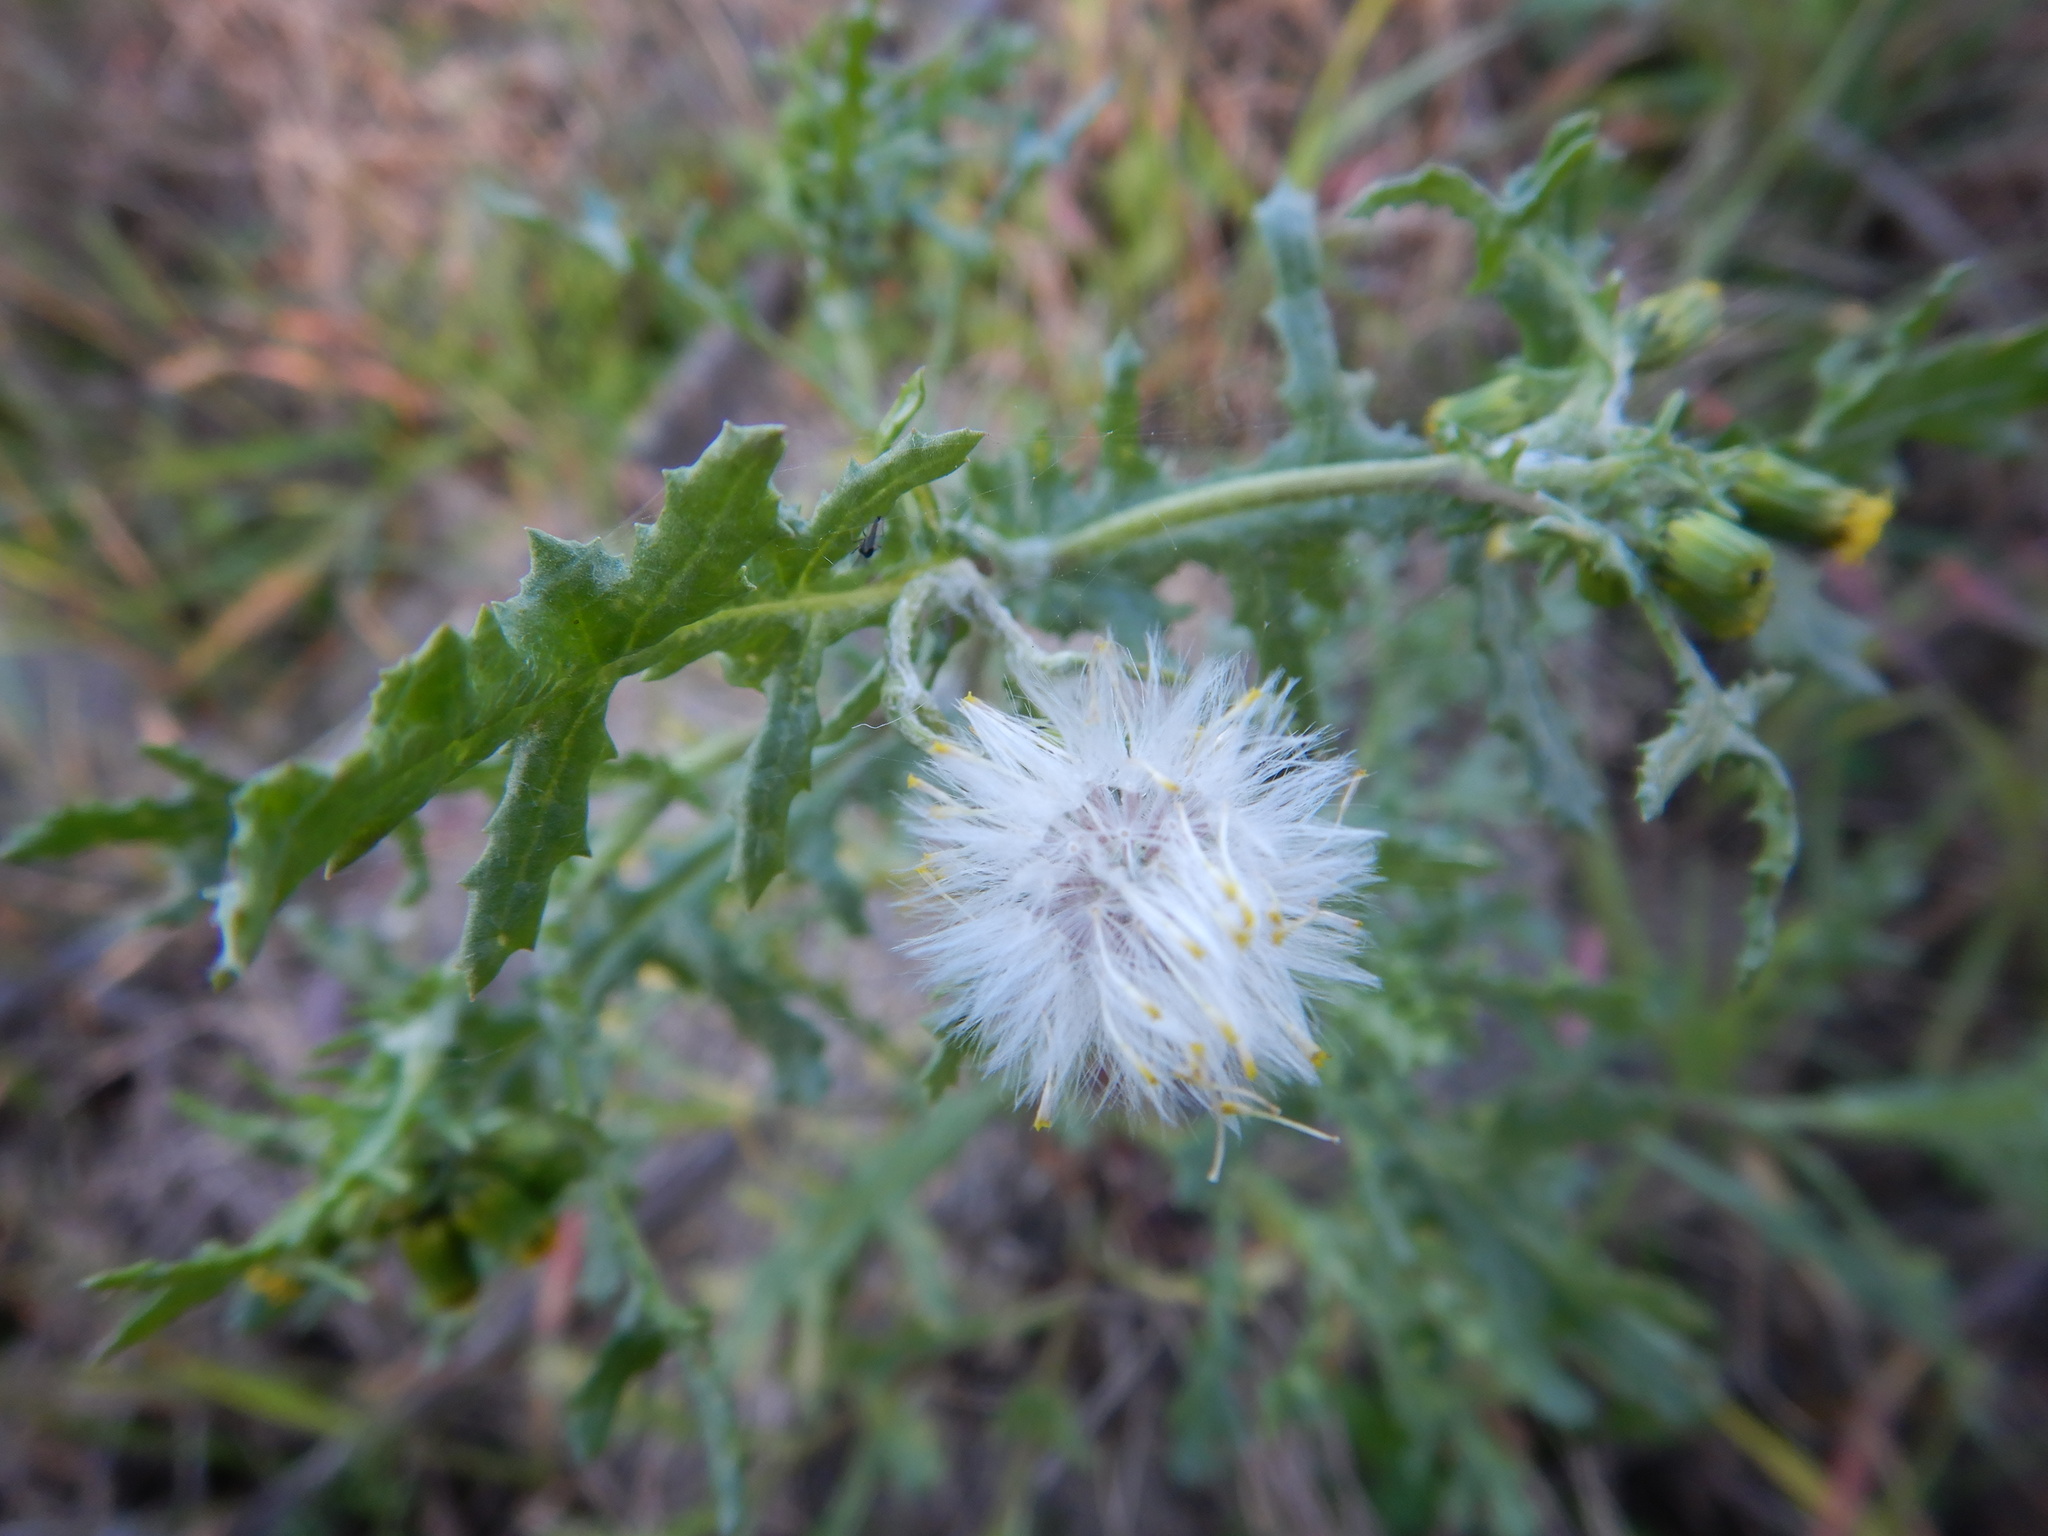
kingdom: Plantae
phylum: Tracheophyta
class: Magnoliopsida
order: Asterales
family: Asteraceae
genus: Senecio
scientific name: Senecio vulgaris
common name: Old-man-in-the-spring
